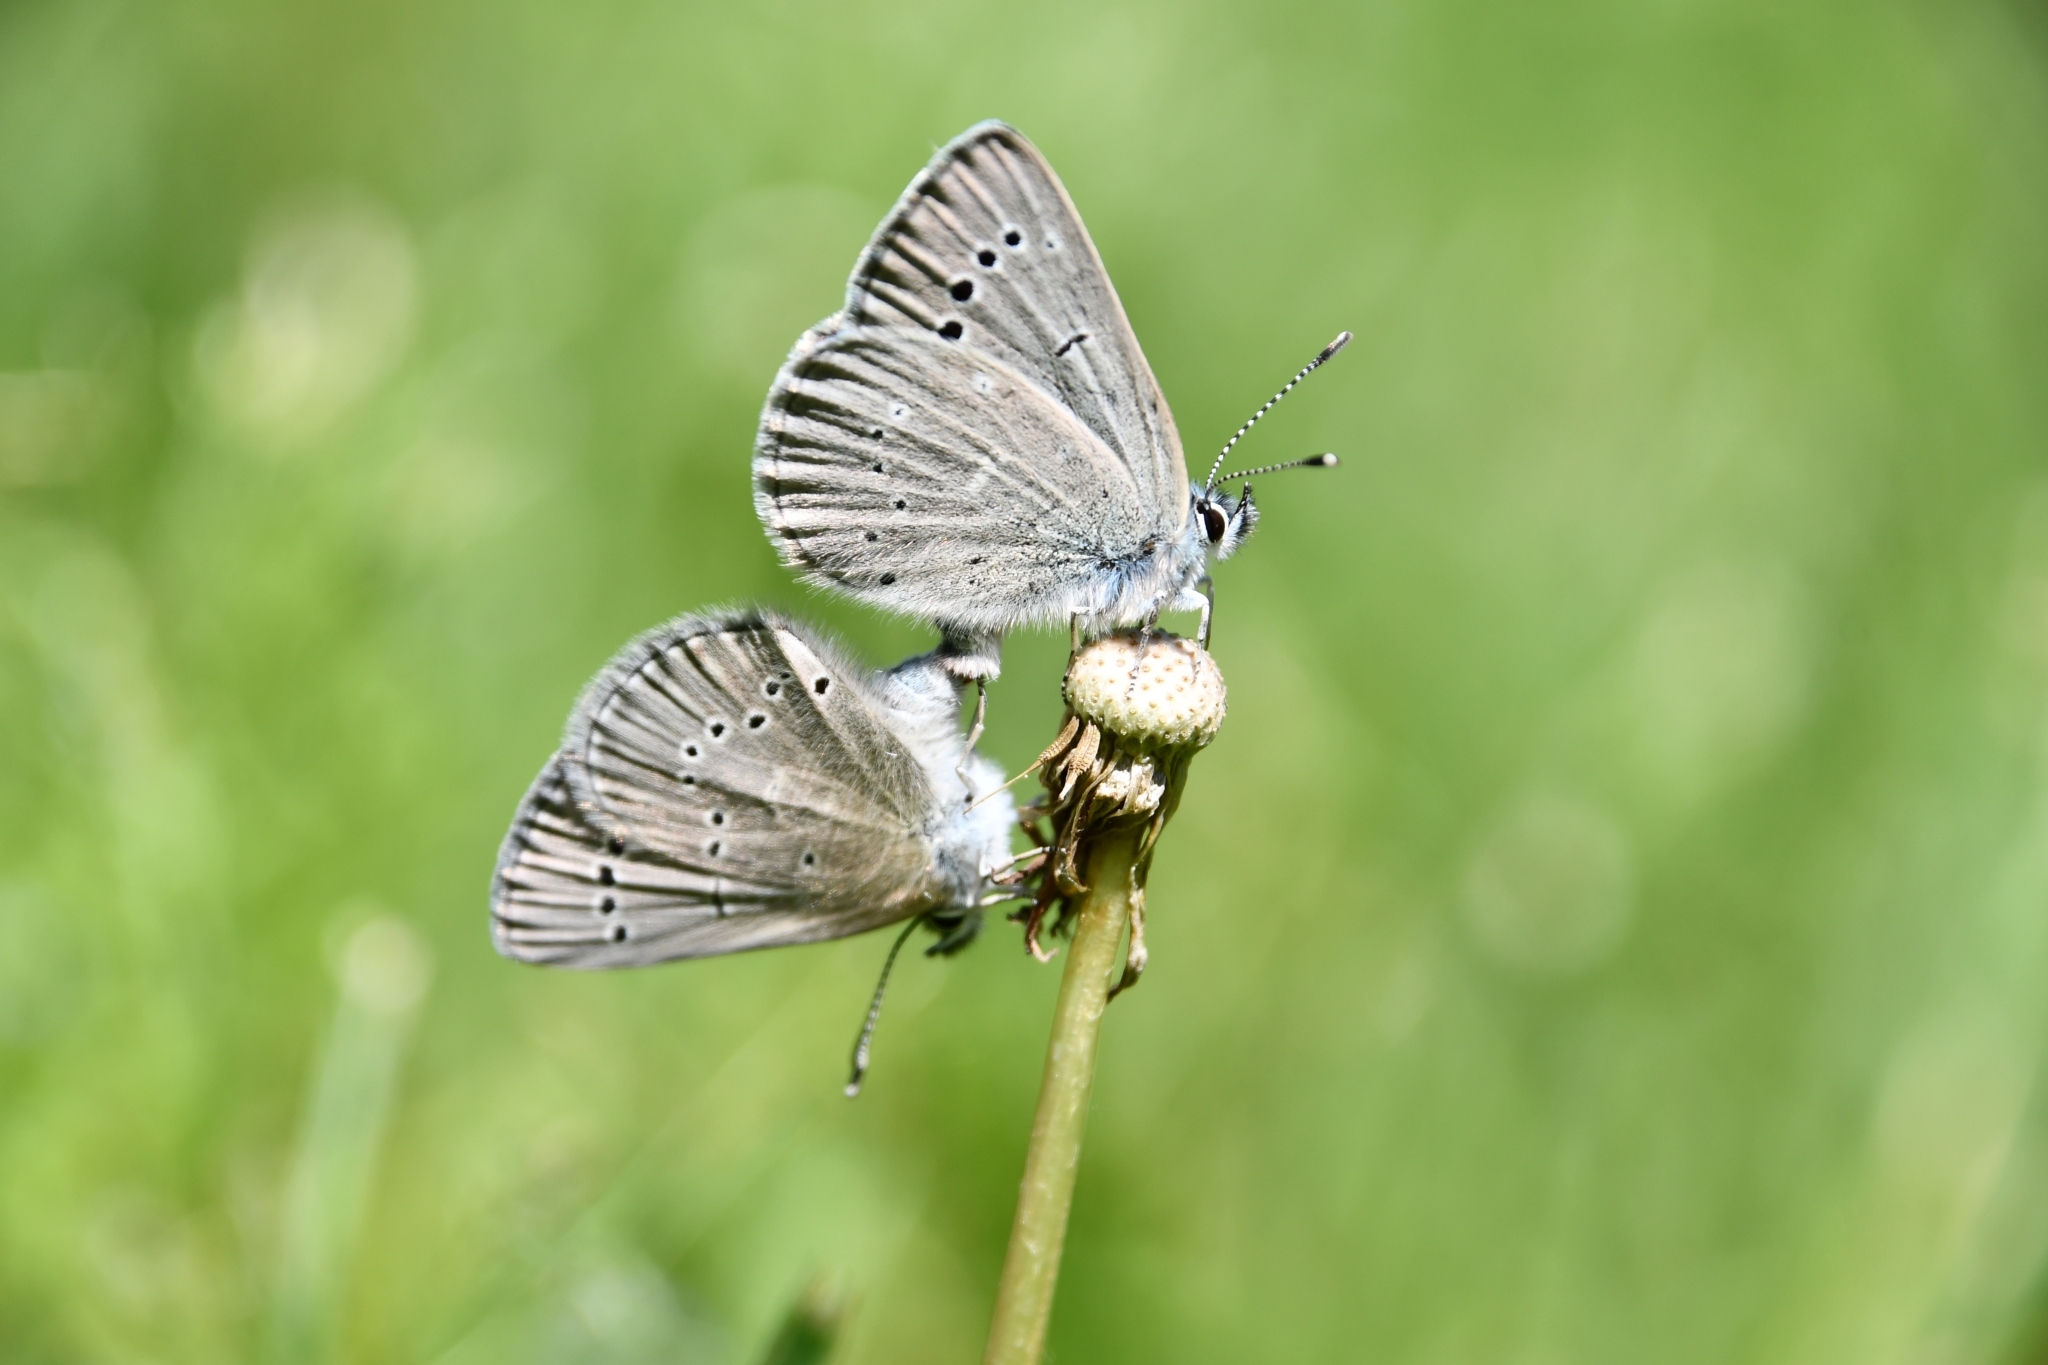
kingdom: Animalia
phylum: Arthropoda
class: Insecta
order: Lepidoptera
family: Lycaenidae
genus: Glaucopsyche
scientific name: Glaucopsyche lygdamus
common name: Silvery blue
